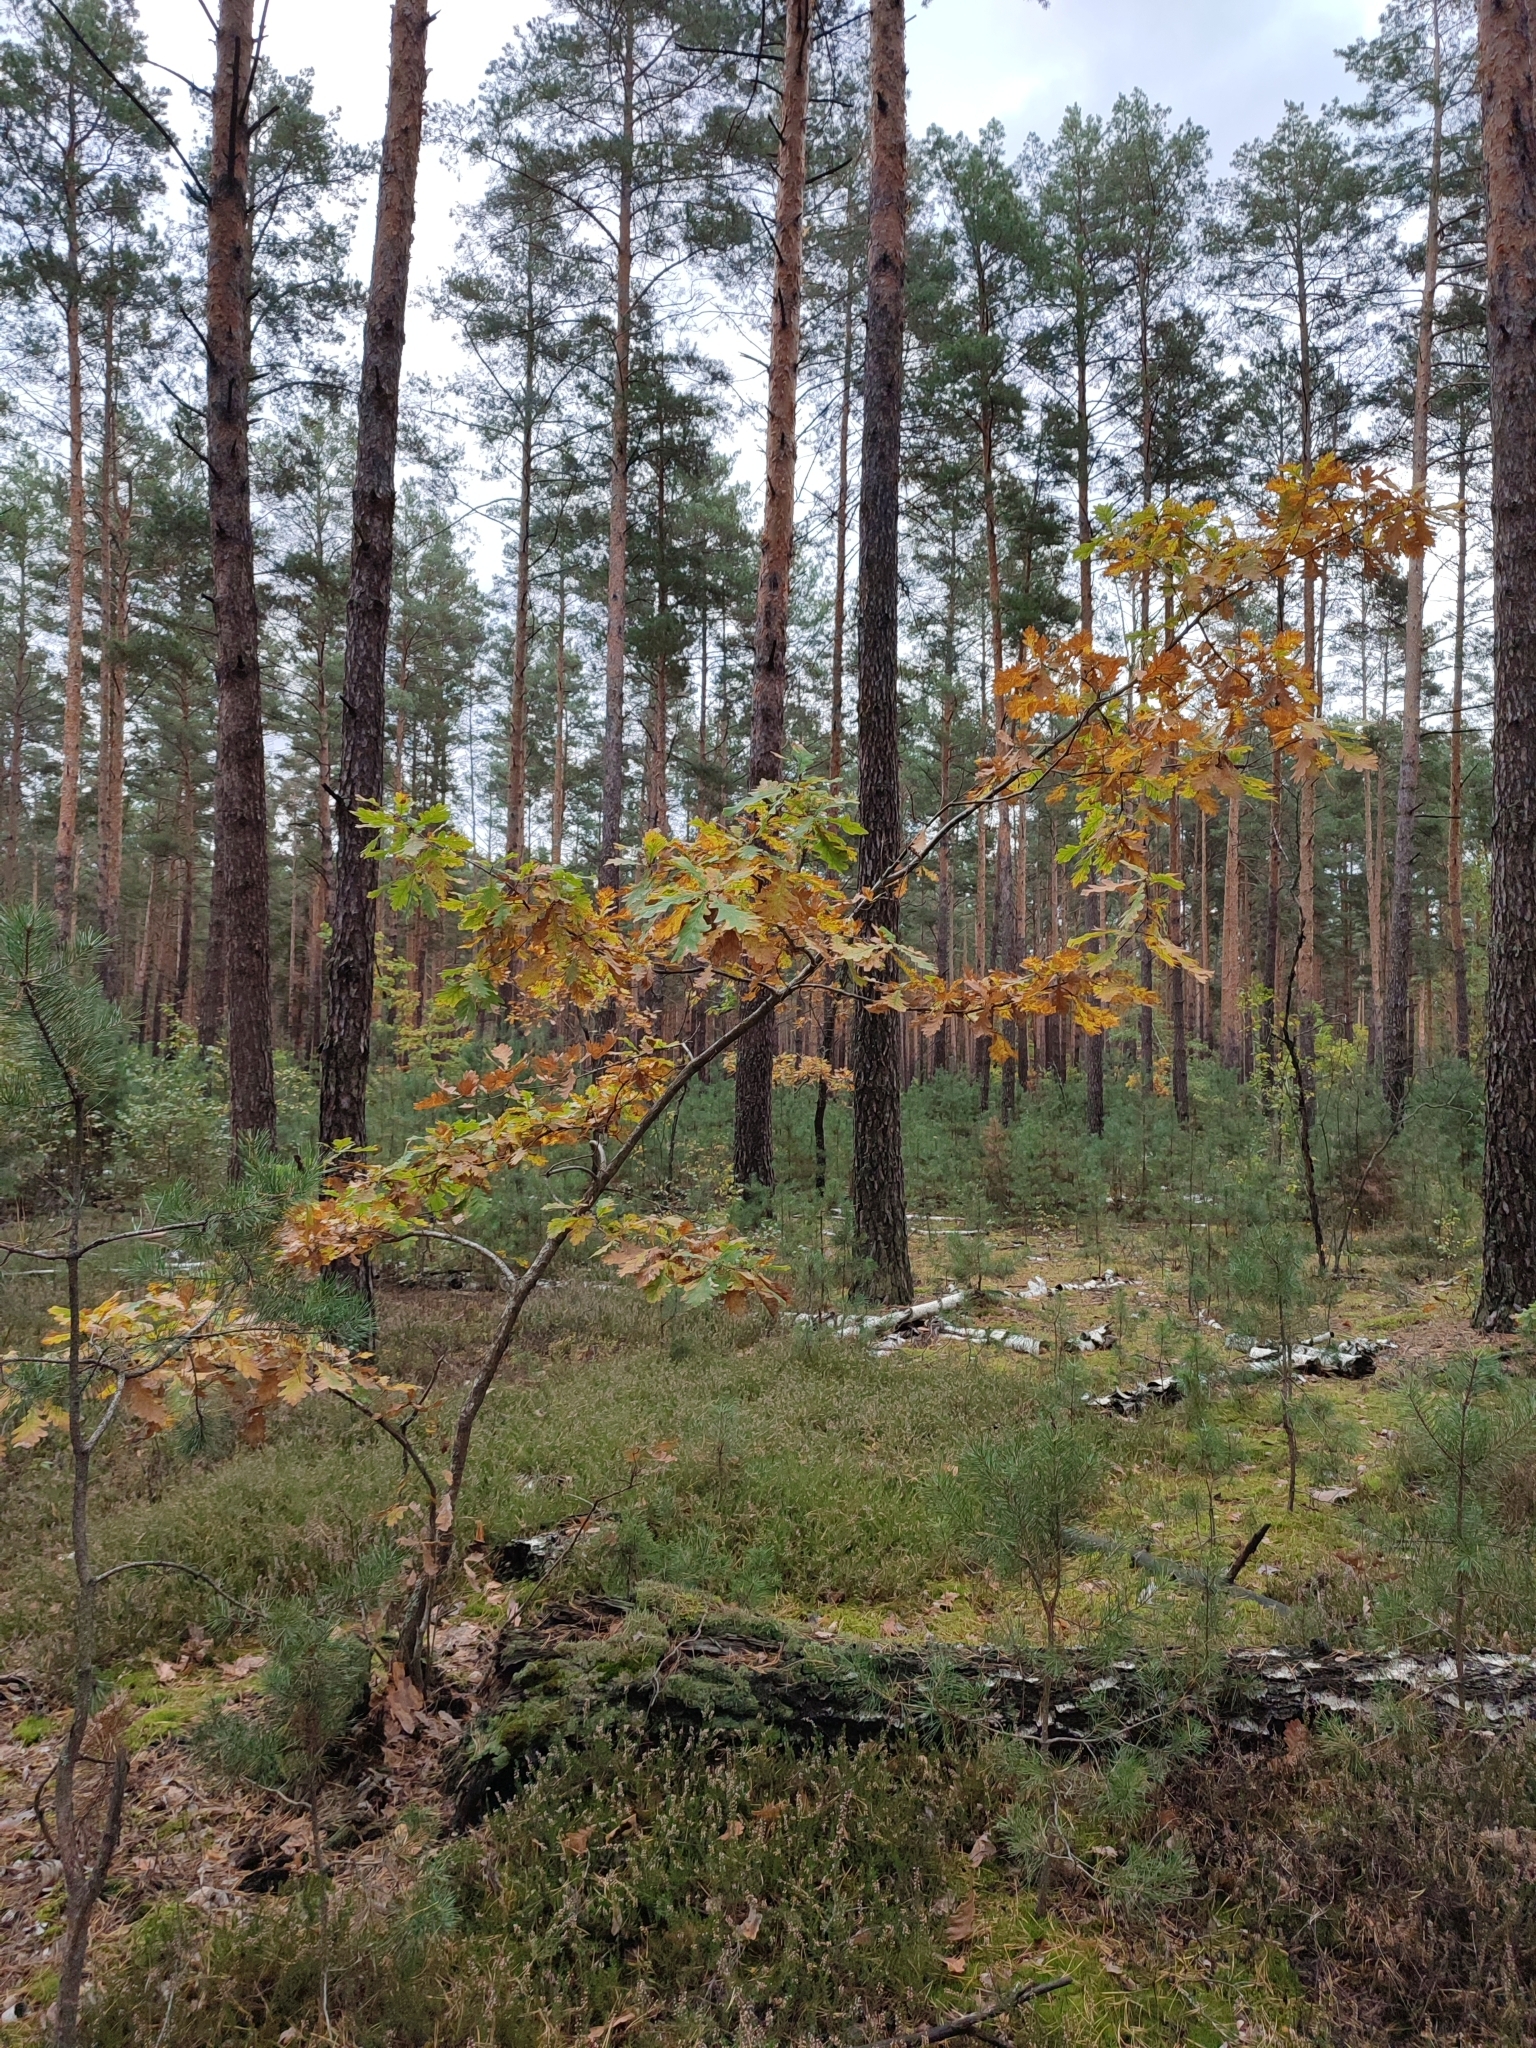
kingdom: Plantae
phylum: Tracheophyta
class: Magnoliopsida
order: Fagales
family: Fagaceae
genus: Quercus
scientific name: Quercus robur
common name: Pedunculate oak
